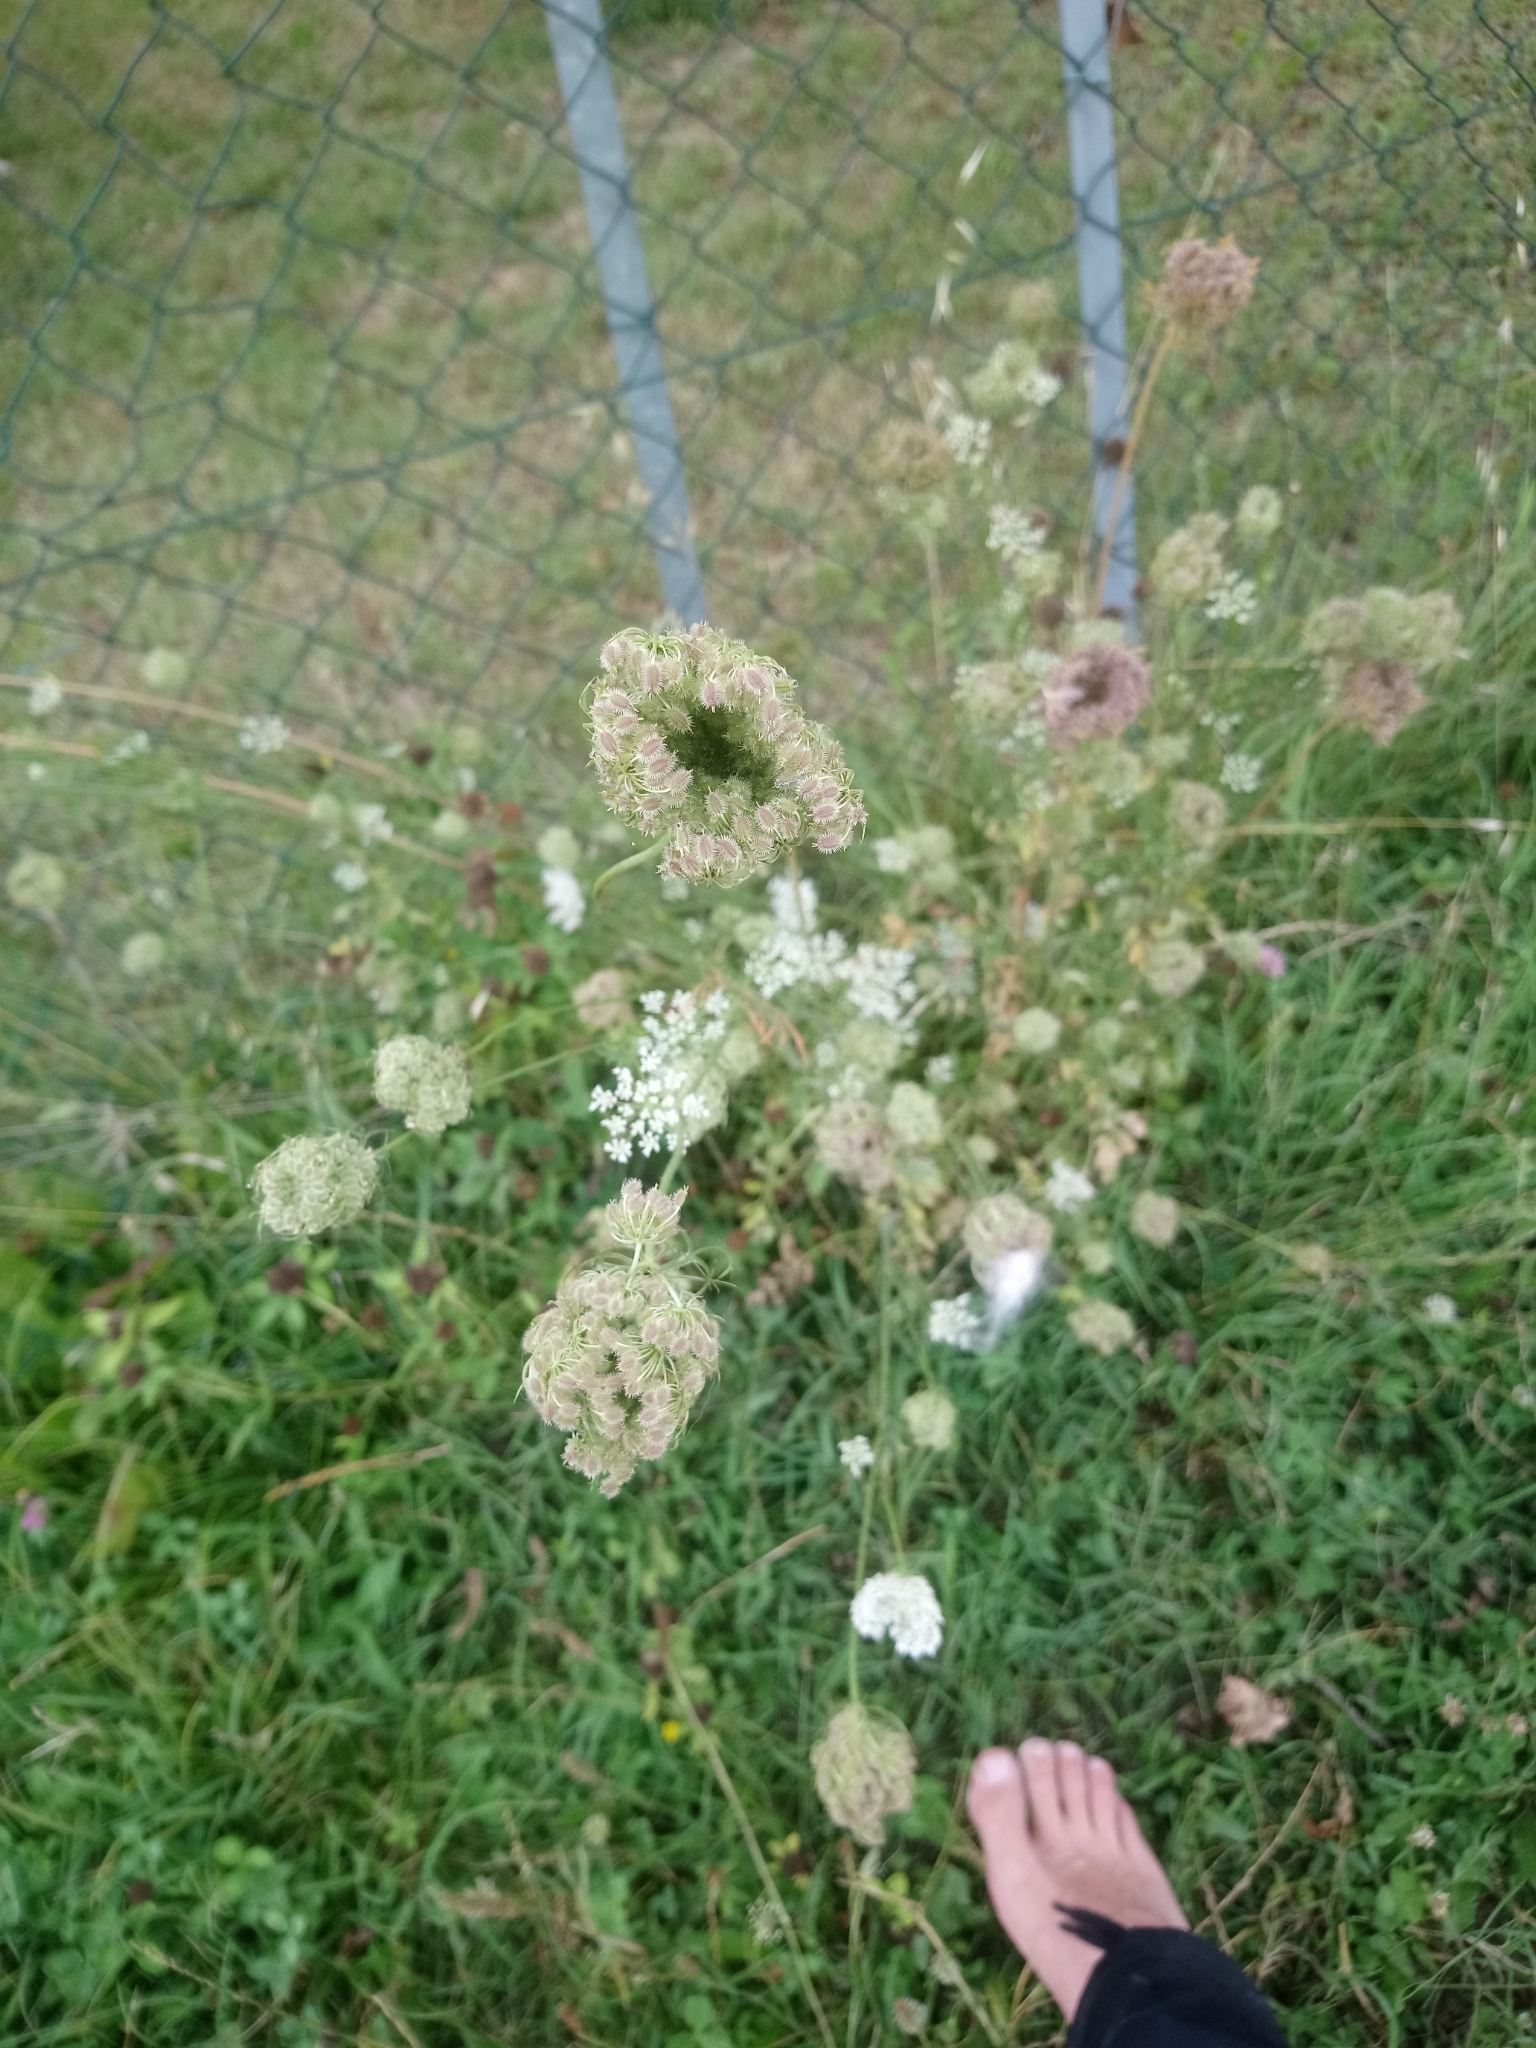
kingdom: Plantae
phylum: Tracheophyta
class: Magnoliopsida
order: Apiales
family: Apiaceae
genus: Daucus
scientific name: Daucus carota
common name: Wild carrot
